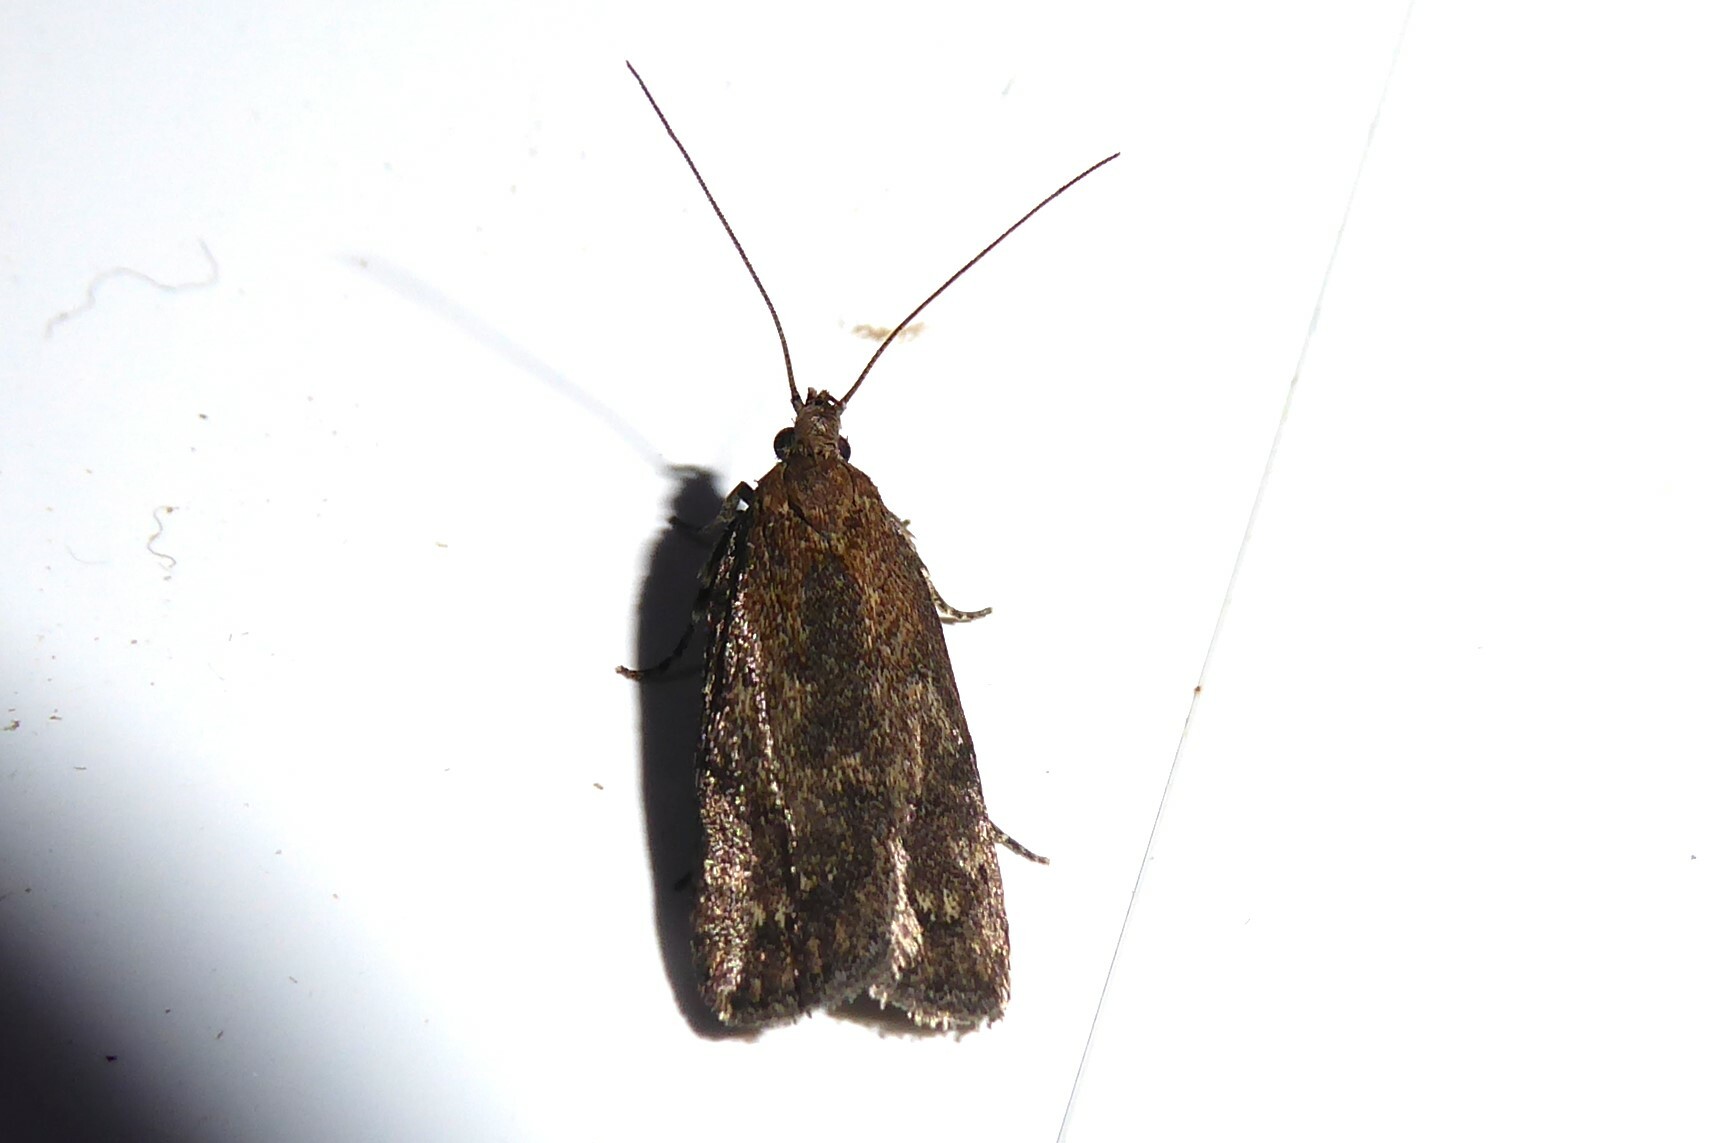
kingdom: Animalia
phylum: Arthropoda
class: Insecta
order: Lepidoptera
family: Depressariidae
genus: Phaeosaces
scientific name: Phaeosaces apocrypta
